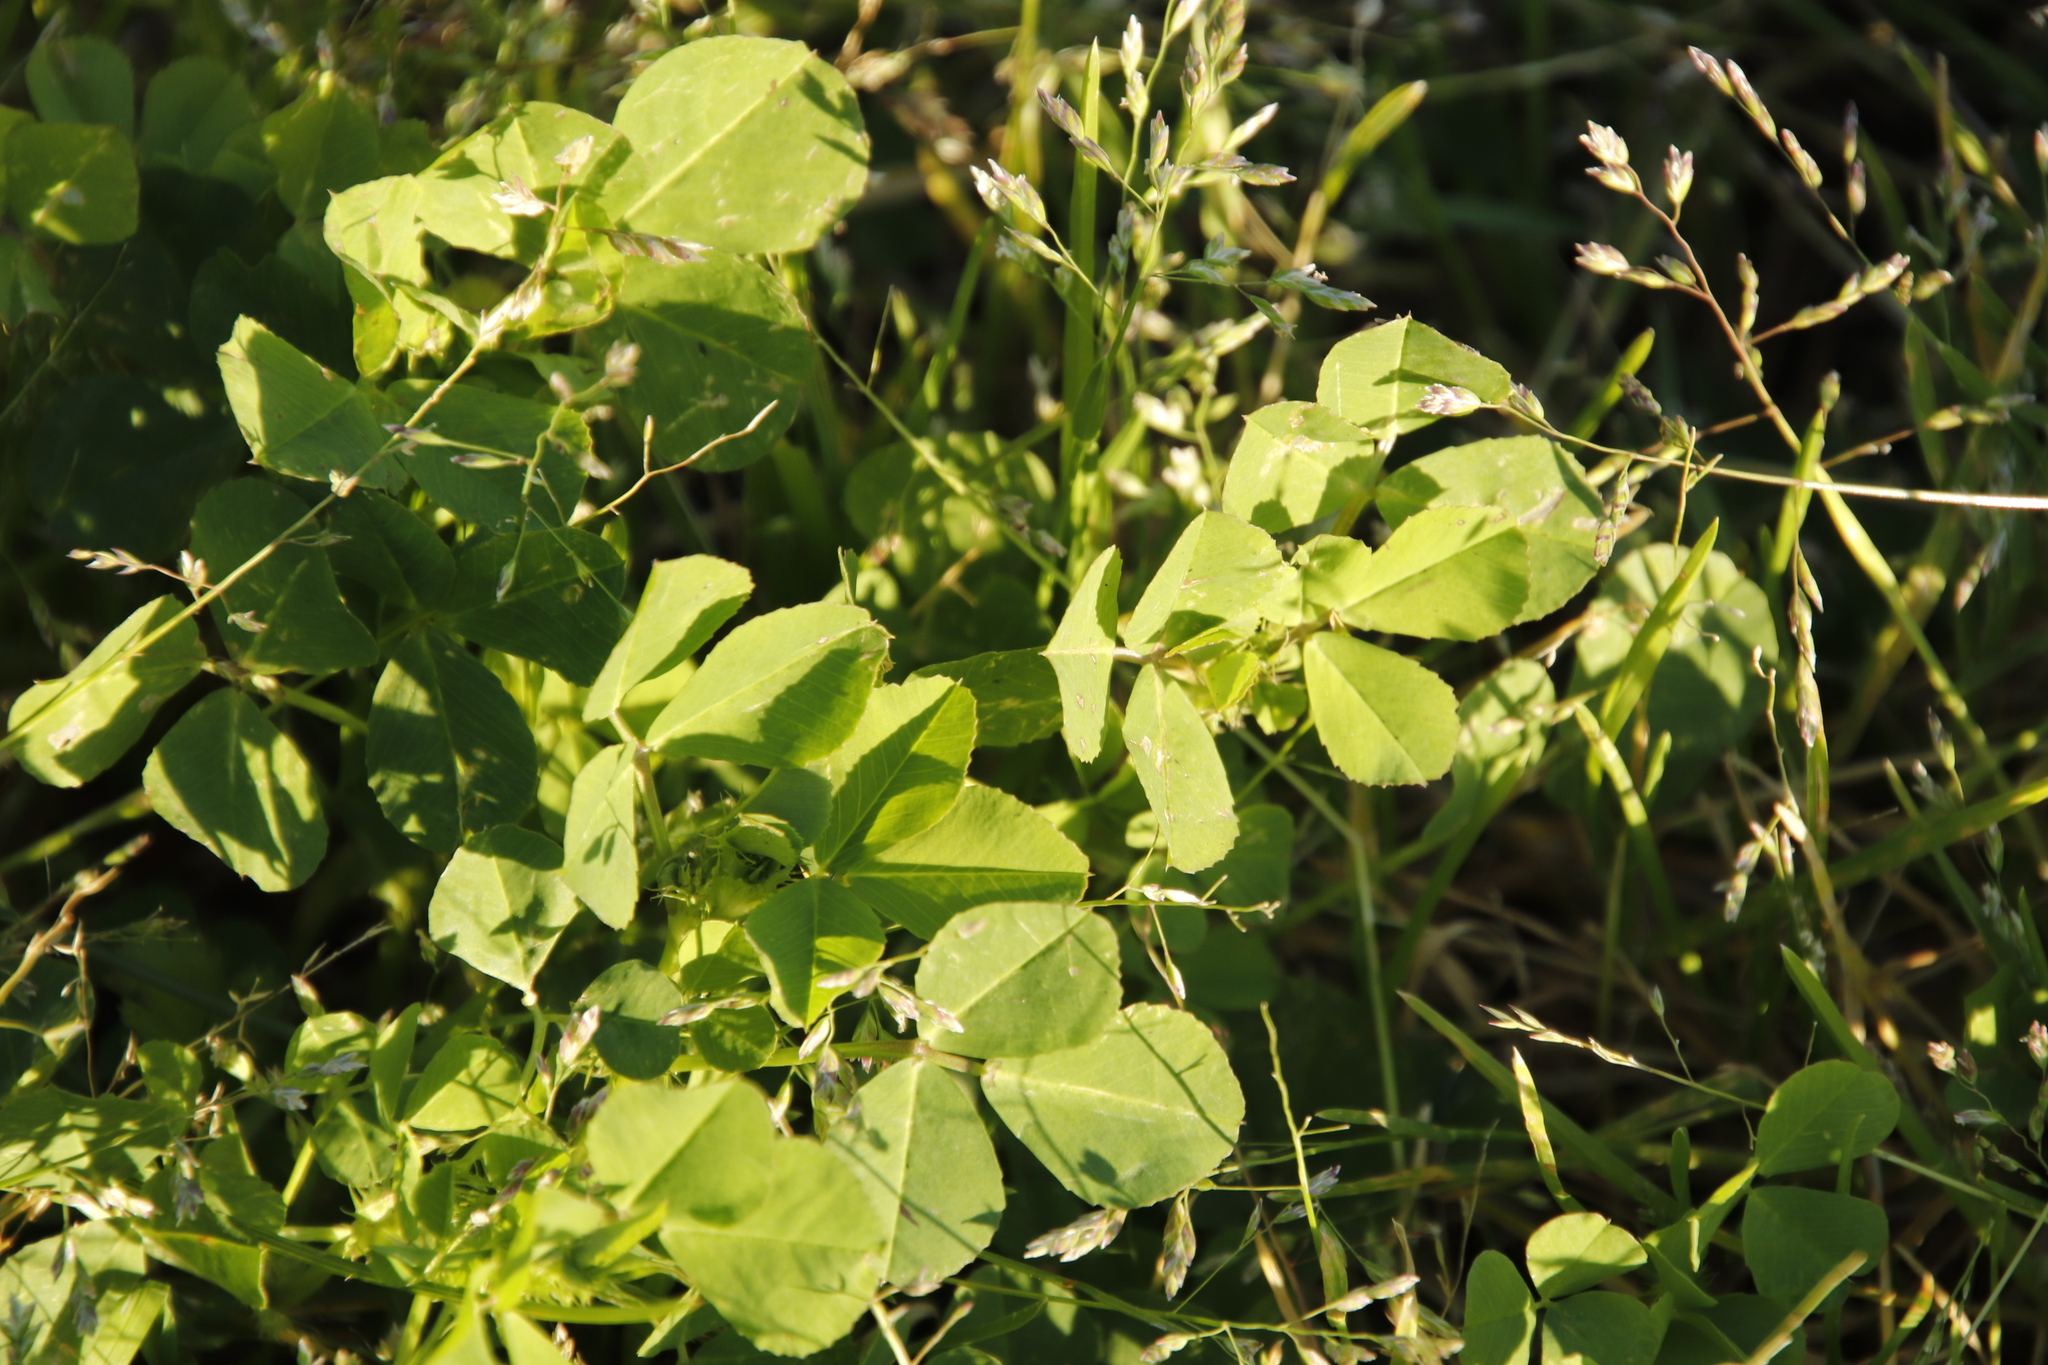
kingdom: Plantae
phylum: Tracheophyta
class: Magnoliopsida
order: Fabales
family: Fabaceae
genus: Medicago
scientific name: Medicago polymorpha
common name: Burclover
